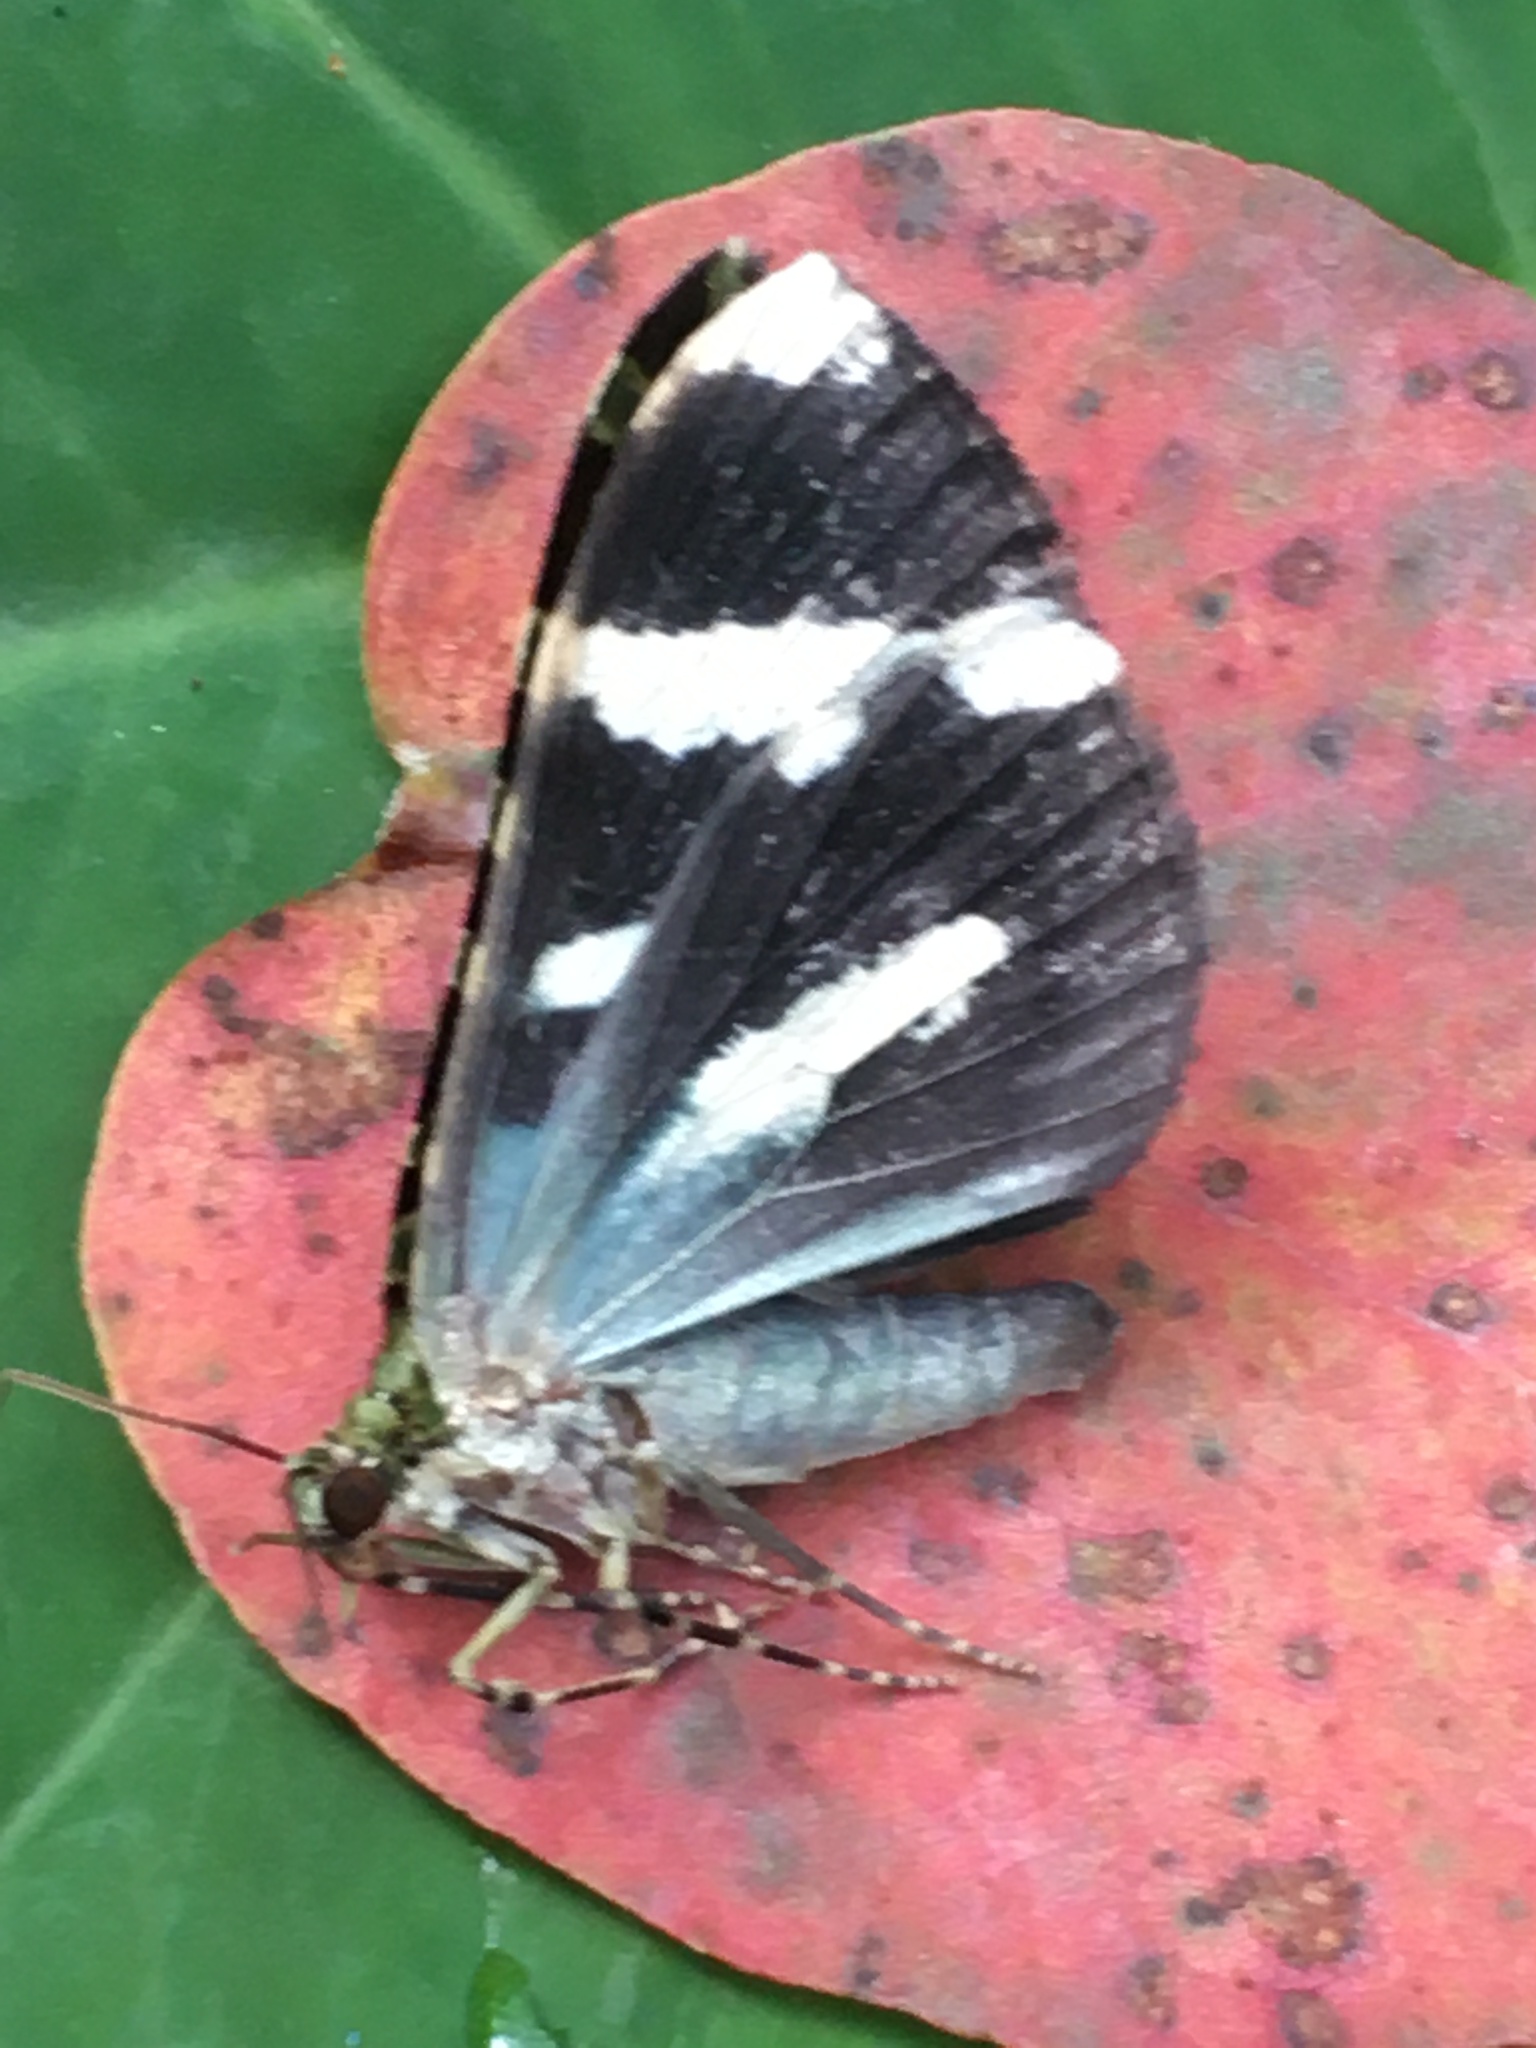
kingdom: Animalia
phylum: Arthropoda
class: Insecta
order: Lepidoptera
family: Geometridae
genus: Erebochlora
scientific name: Erebochlora tesserulata
